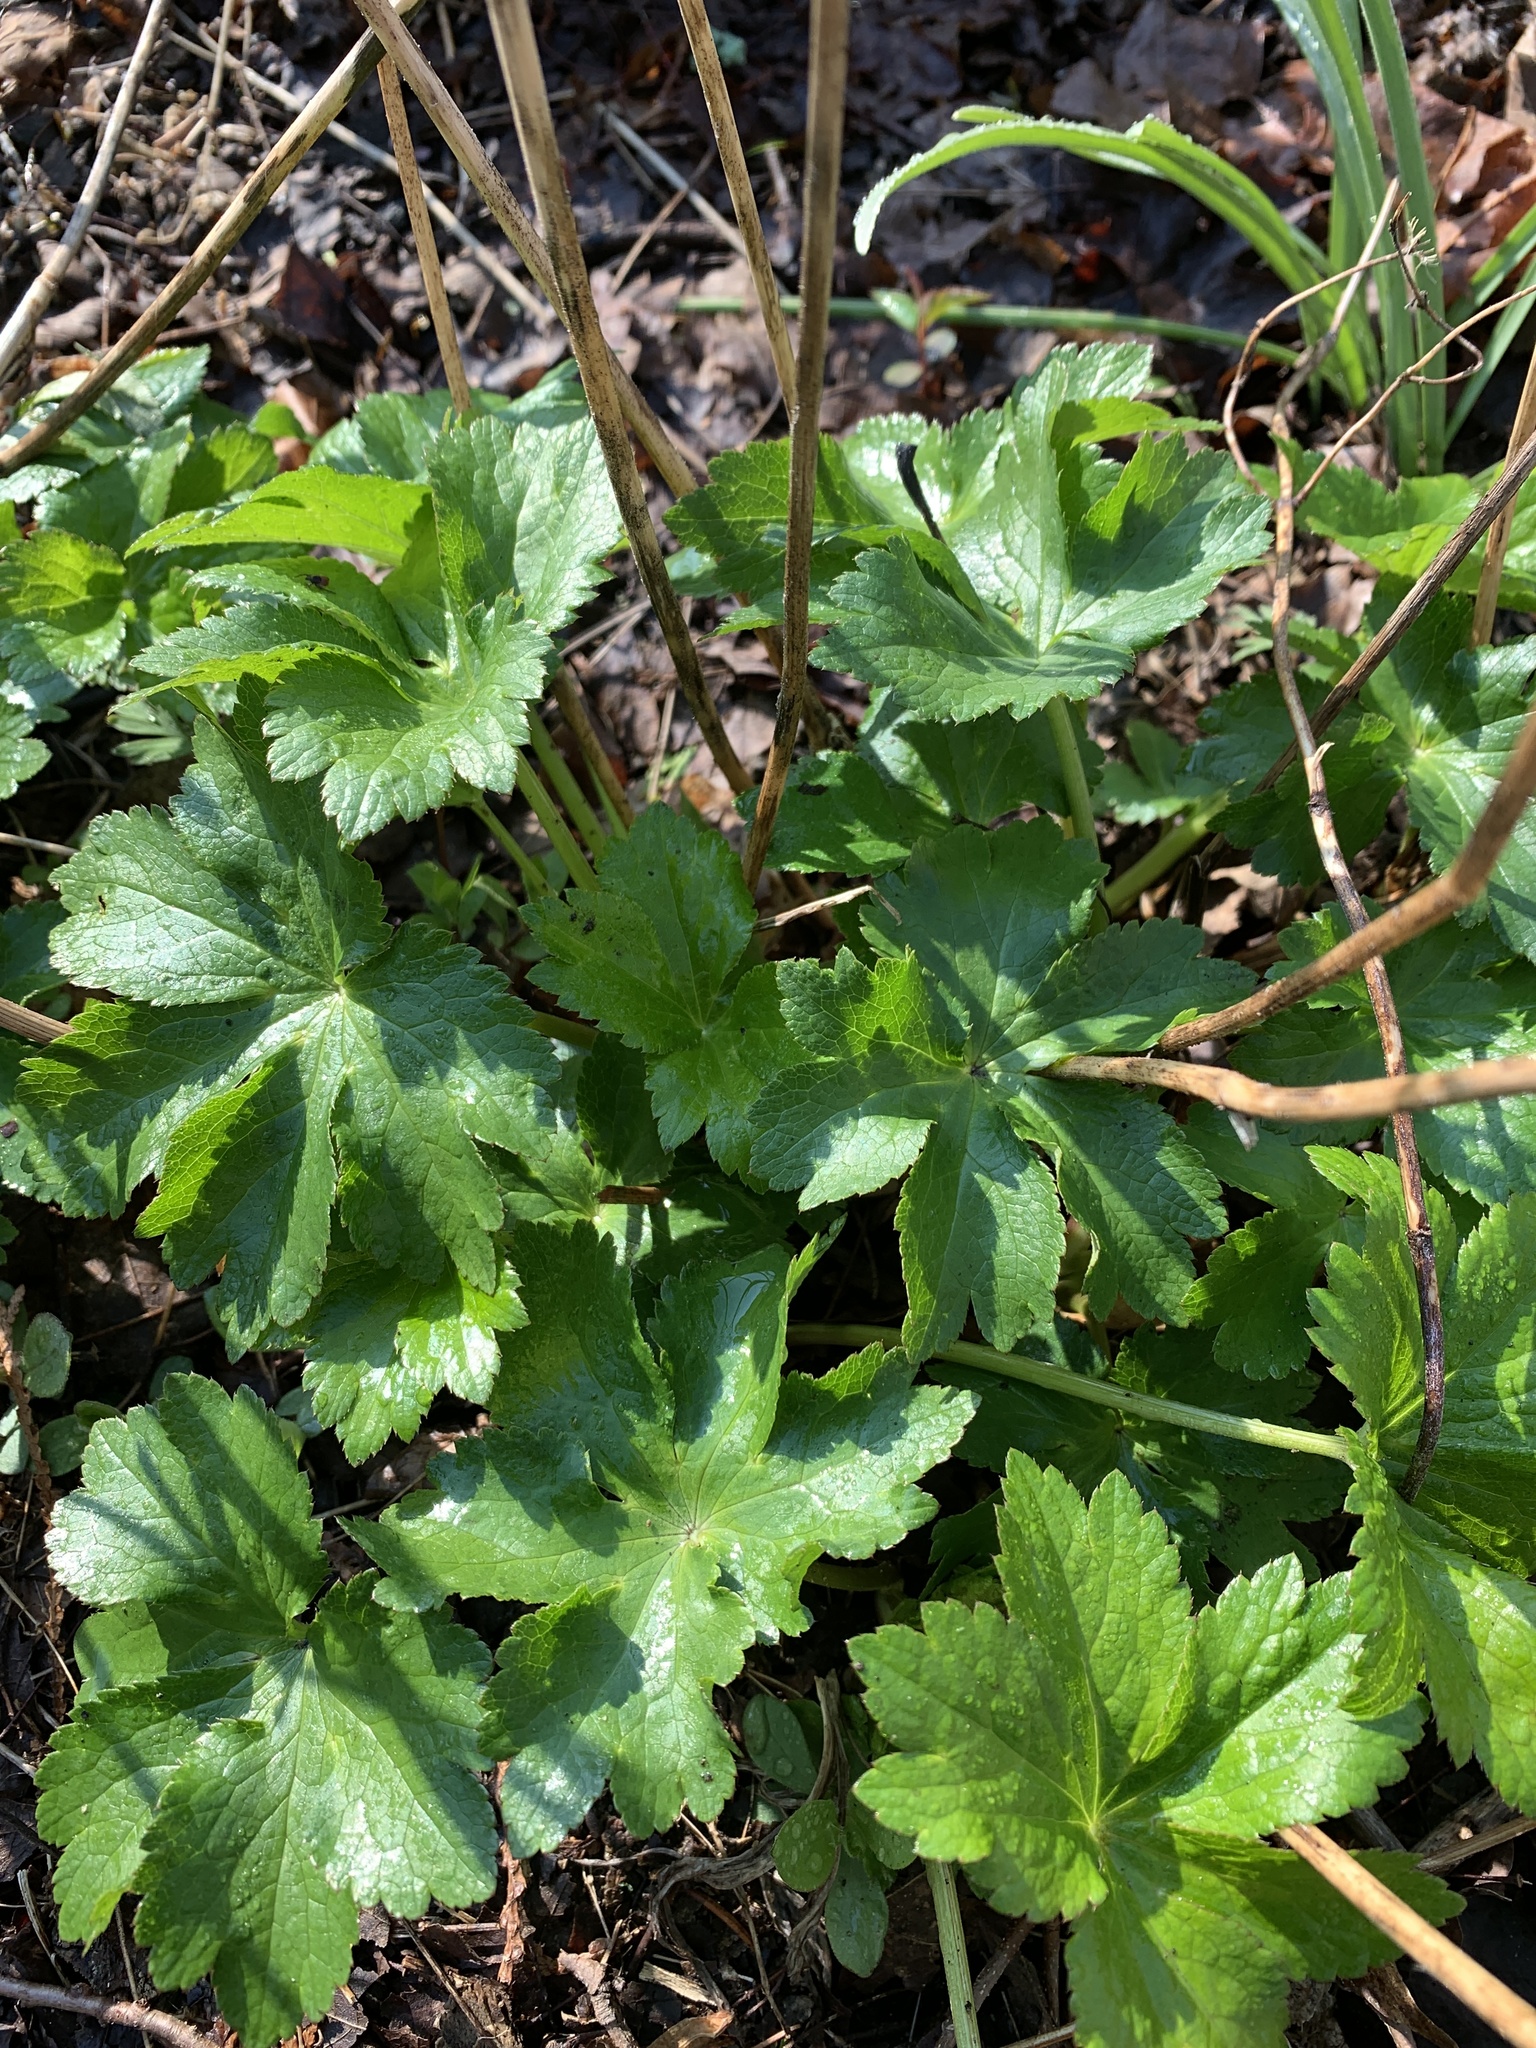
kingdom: Plantae
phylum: Tracheophyta
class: Magnoliopsida
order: Apiales
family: Apiaceae
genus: Astrantia
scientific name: Astrantia major
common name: Greater masterwort
